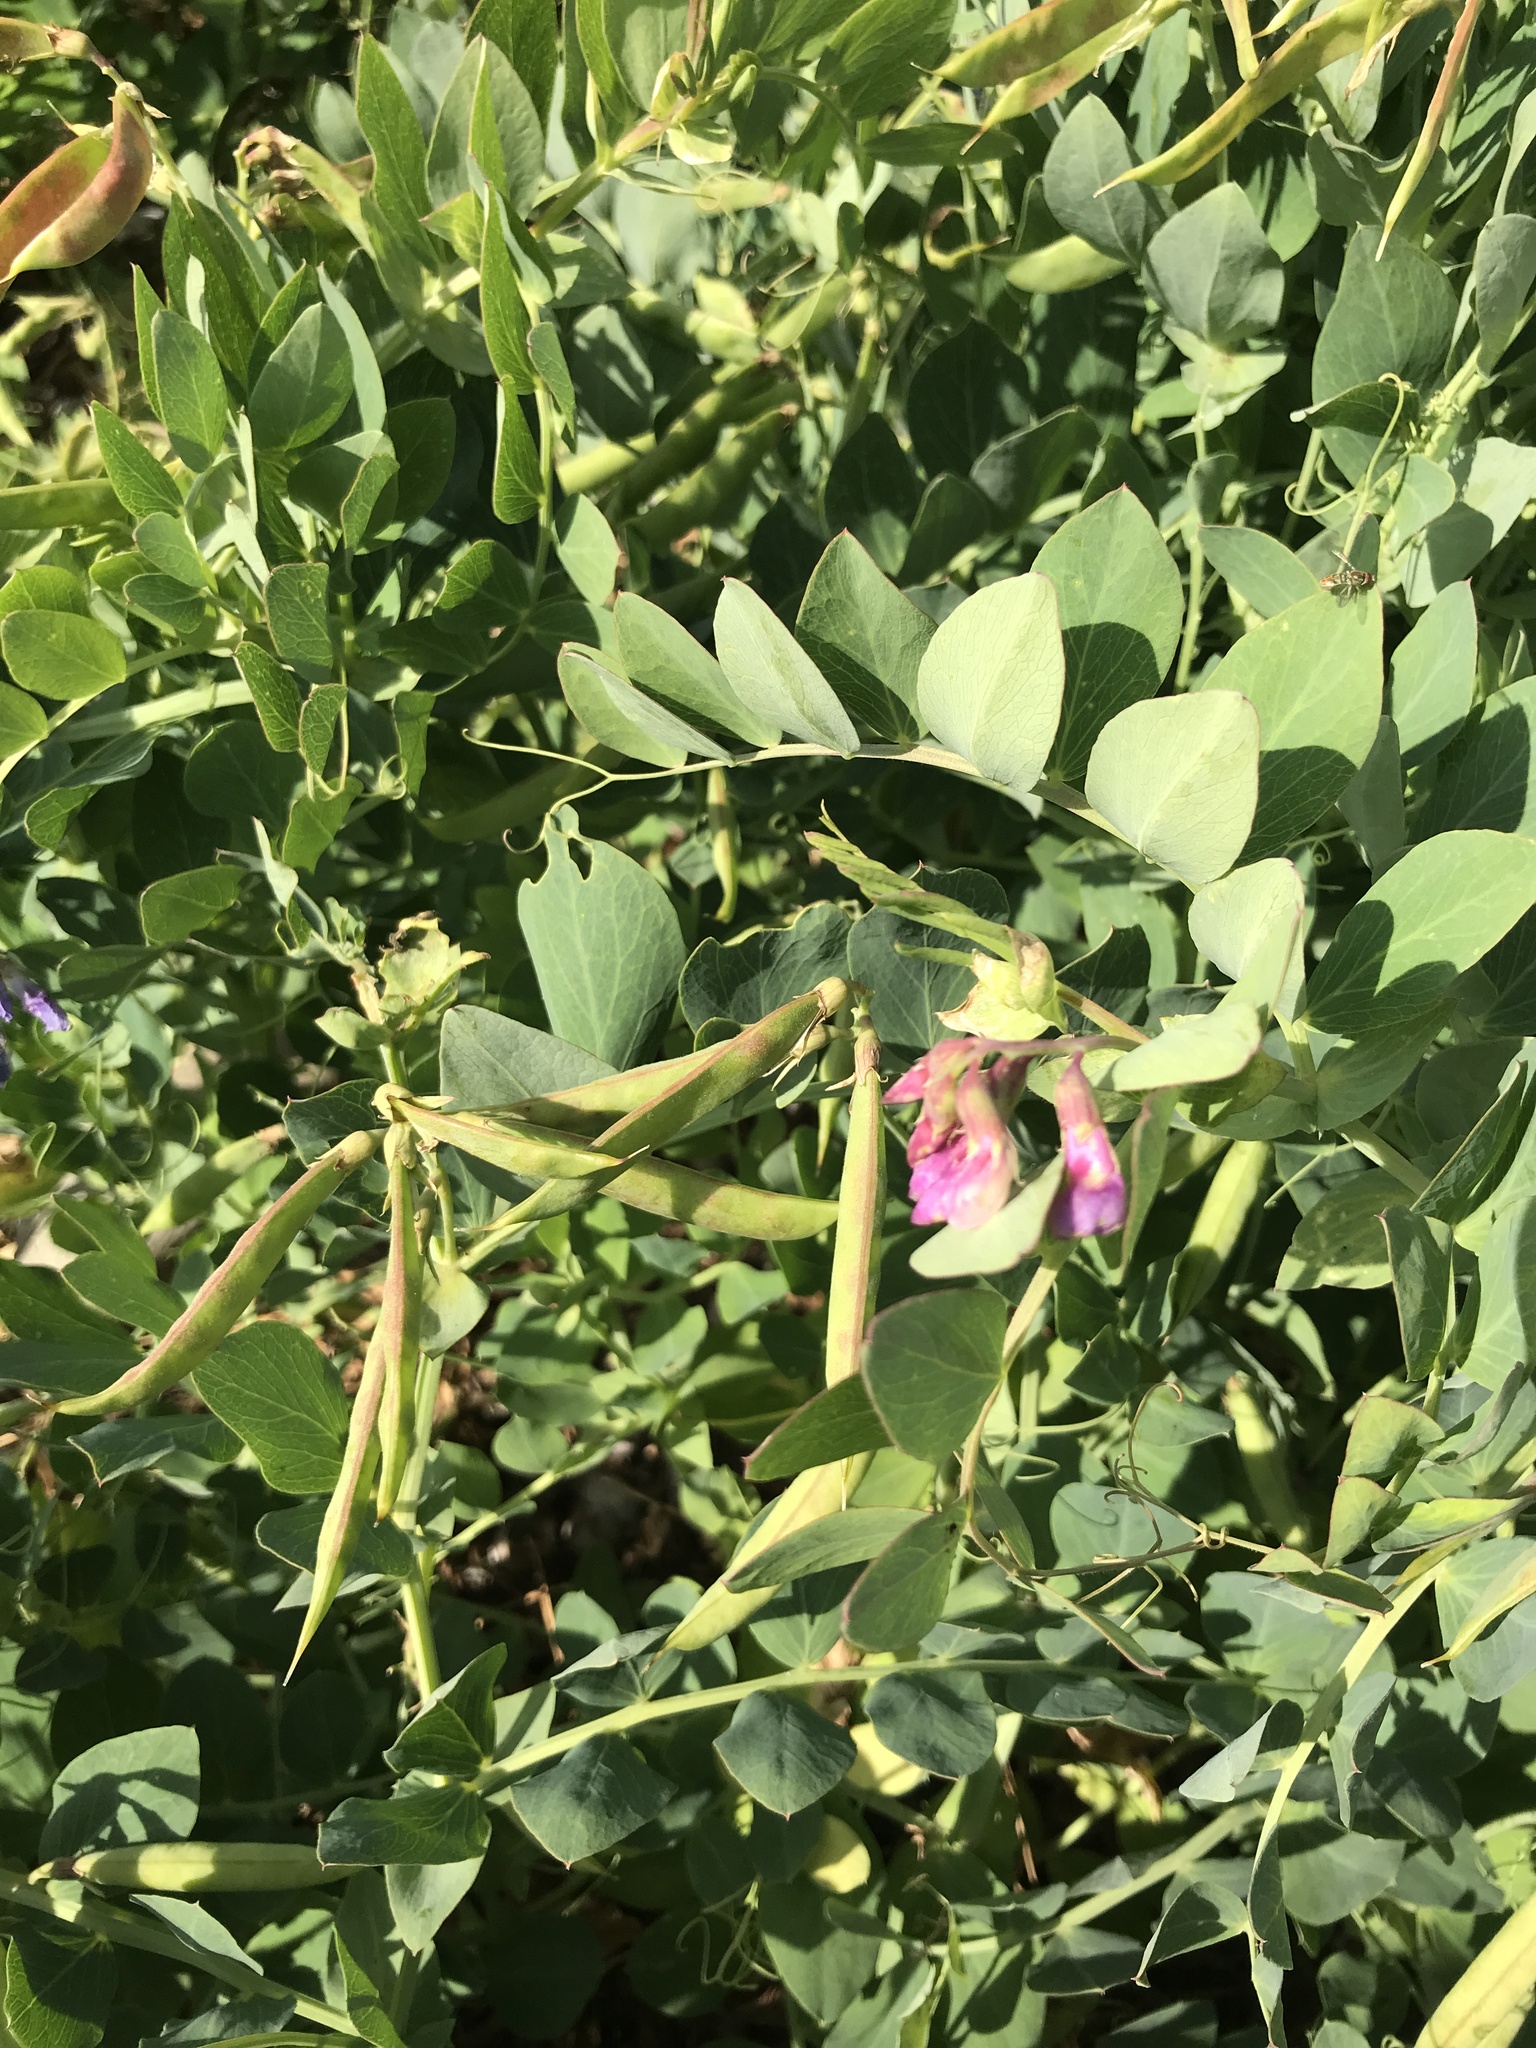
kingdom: Plantae
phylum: Tracheophyta
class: Magnoliopsida
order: Fabales
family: Fabaceae
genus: Lathyrus
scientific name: Lathyrus japonicus
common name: Sea pea
